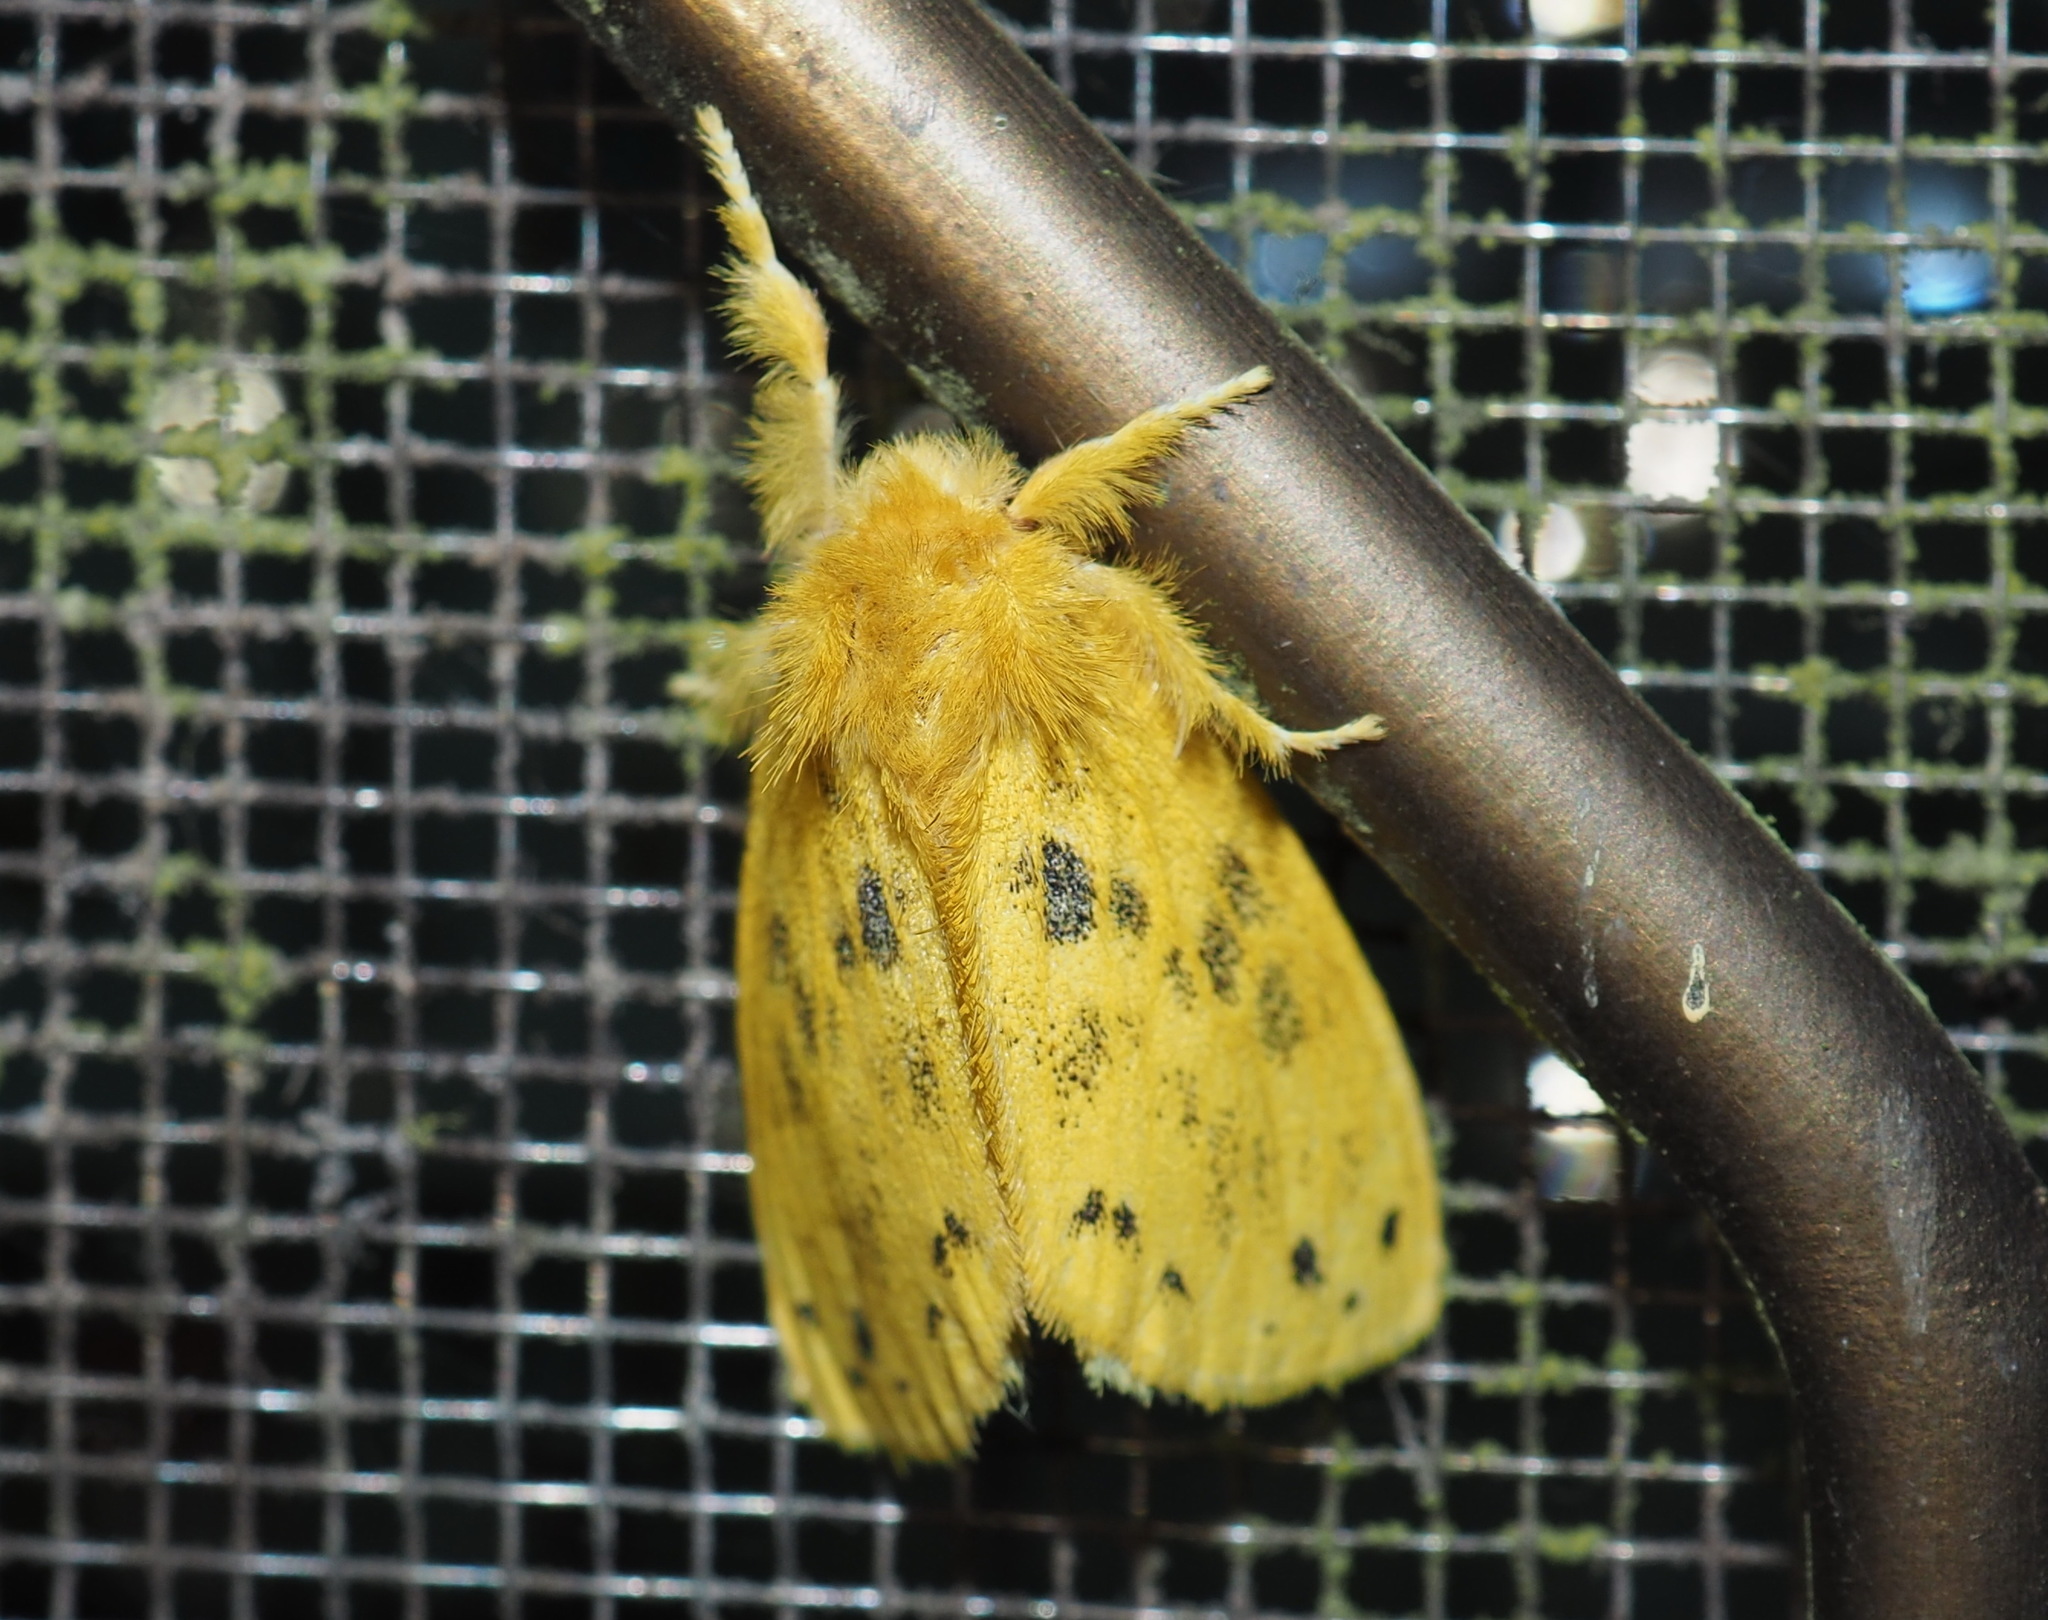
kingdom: Animalia
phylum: Arthropoda
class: Insecta
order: Lepidoptera
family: Erebidae
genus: Euproctis
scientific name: Euproctis croceola
